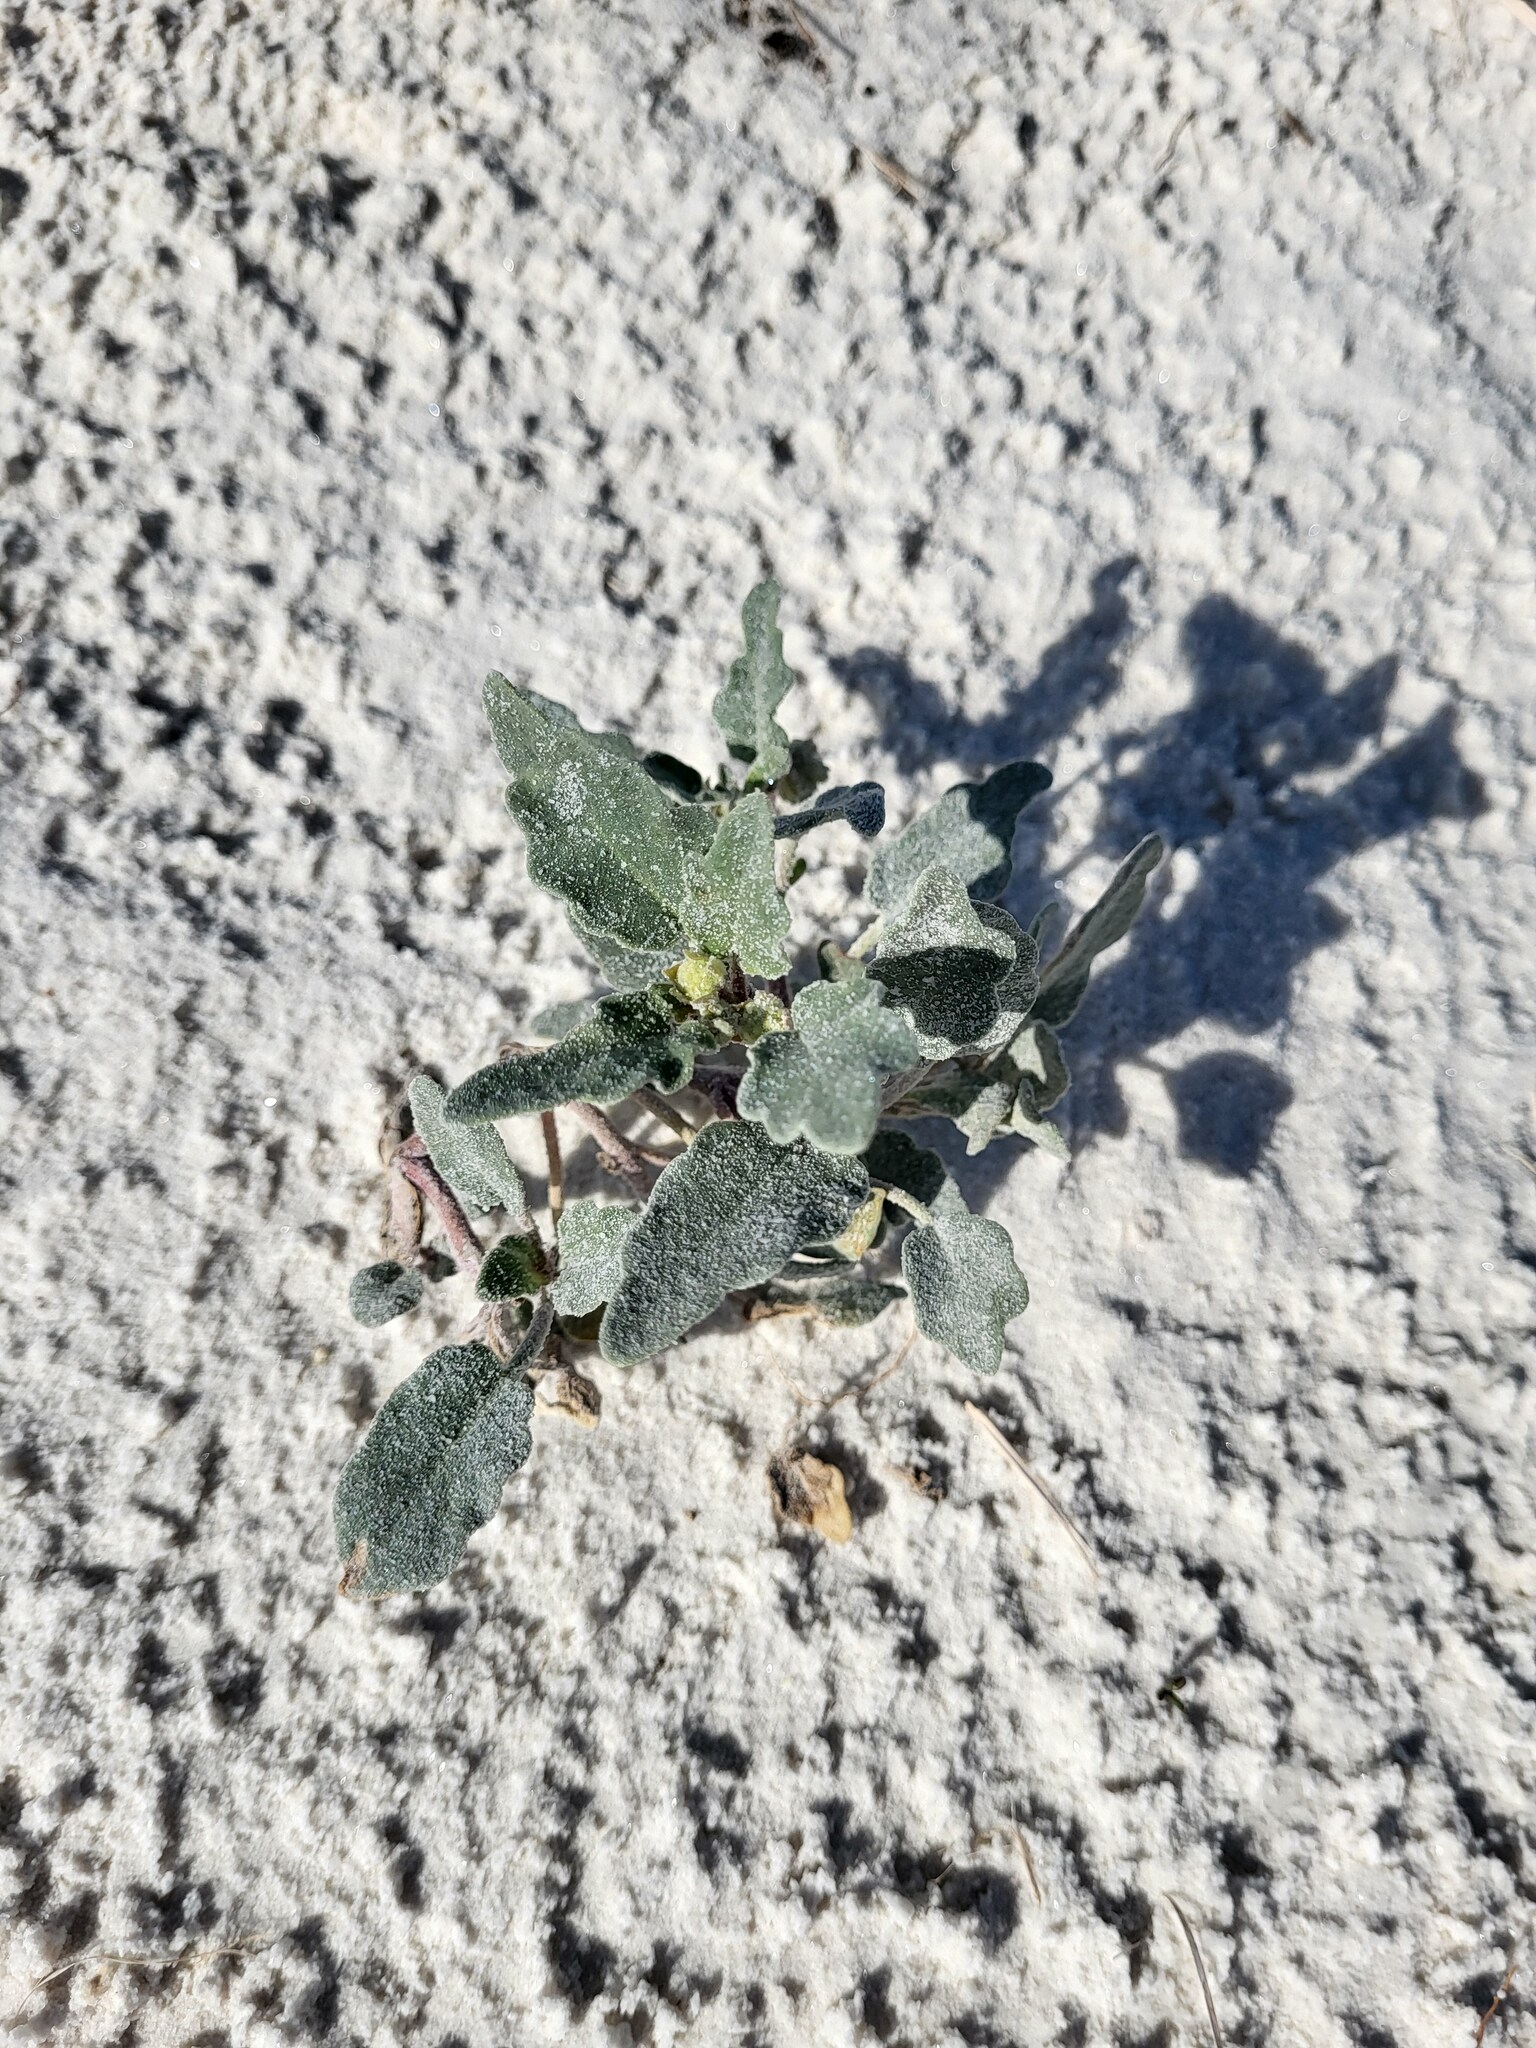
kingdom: Plantae
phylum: Tracheophyta
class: Magnoliopsida
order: Caryophyllales
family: Nyctaginaceae
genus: Abronia
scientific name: Abronia angustifolia
